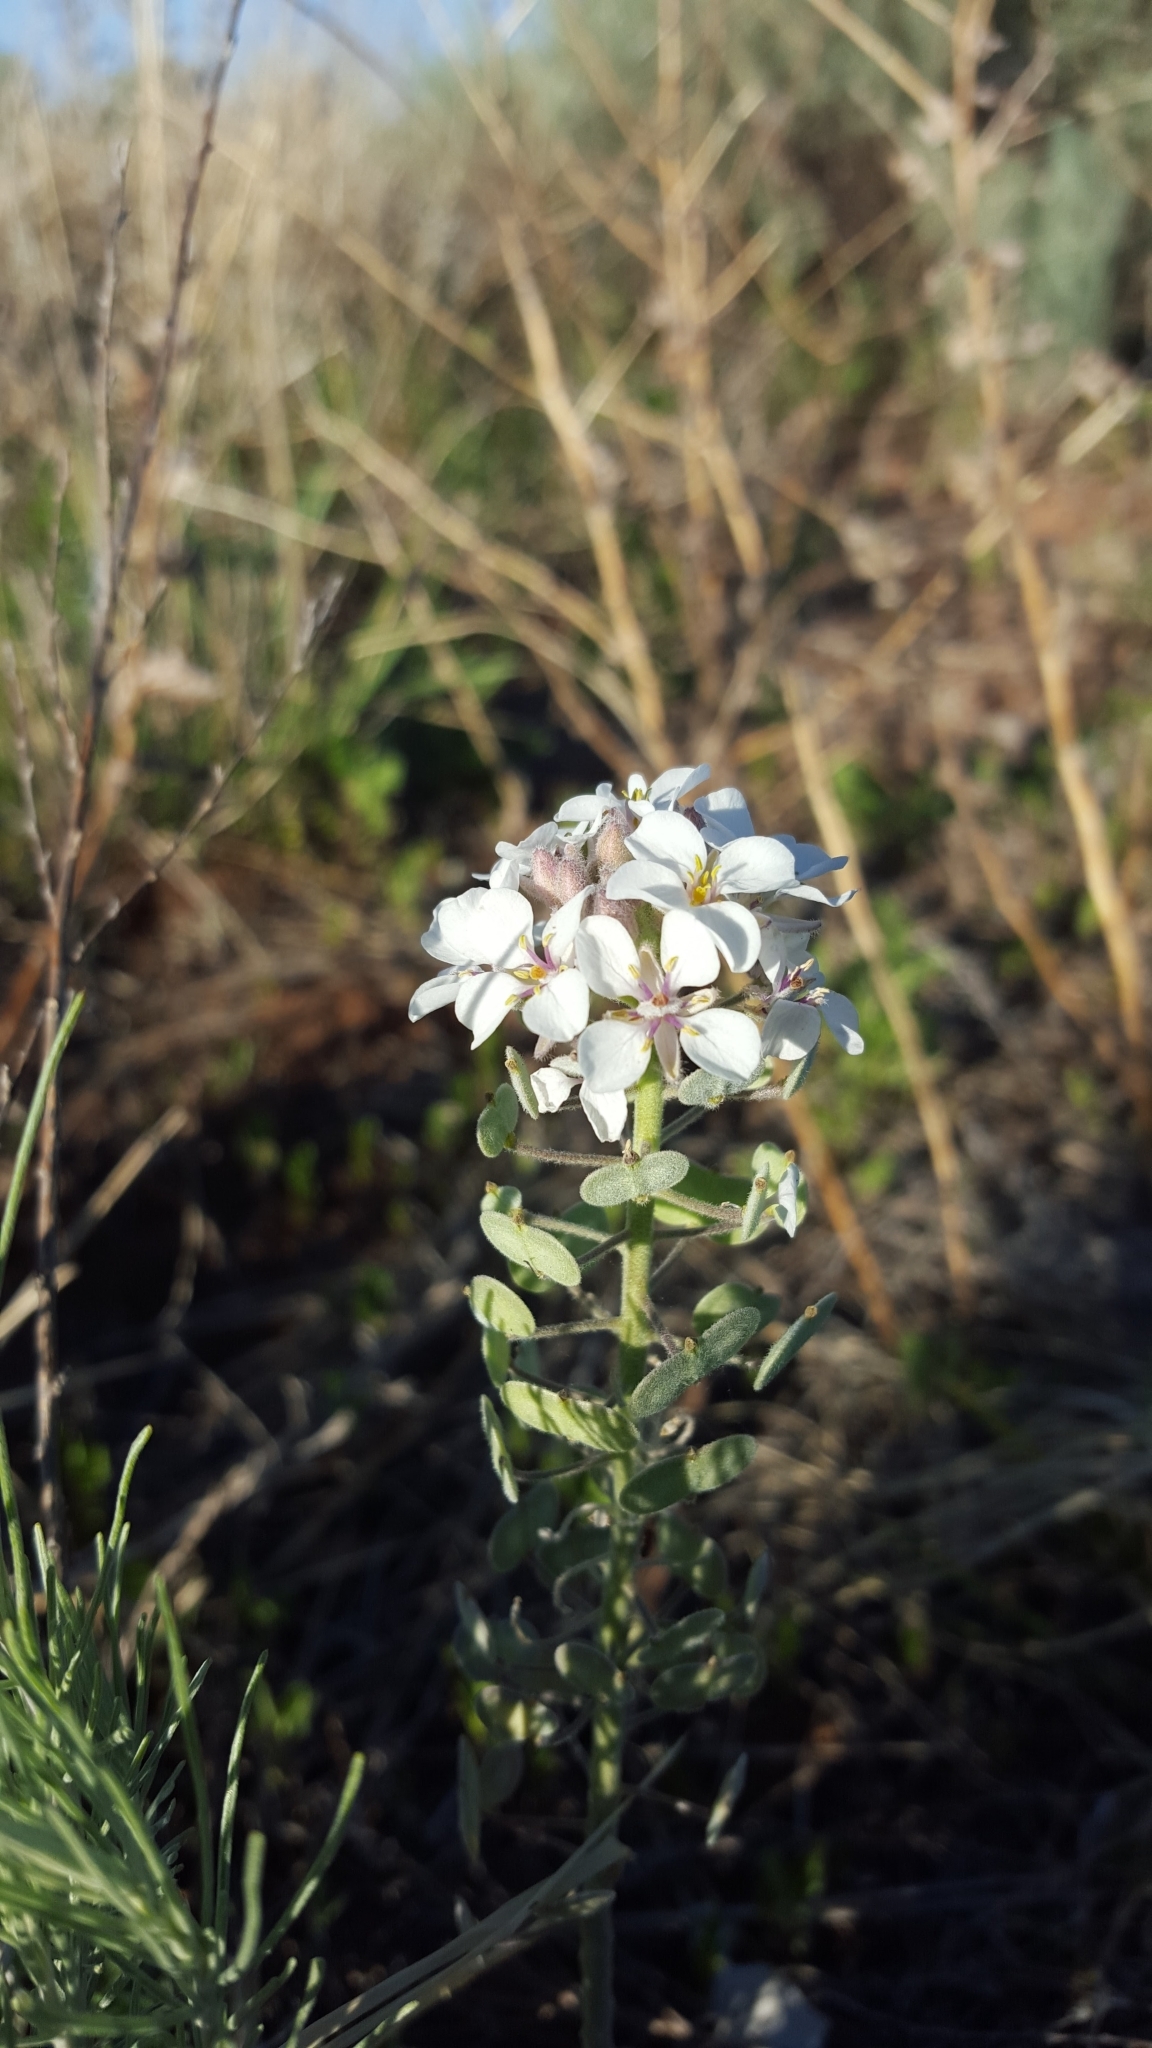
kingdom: Plantae
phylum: Tracheophyta
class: Magnoliopsida
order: Brassicales
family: Brassicaceae
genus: Dimorphocarpa
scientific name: Dimorphocarpa wislizenii
